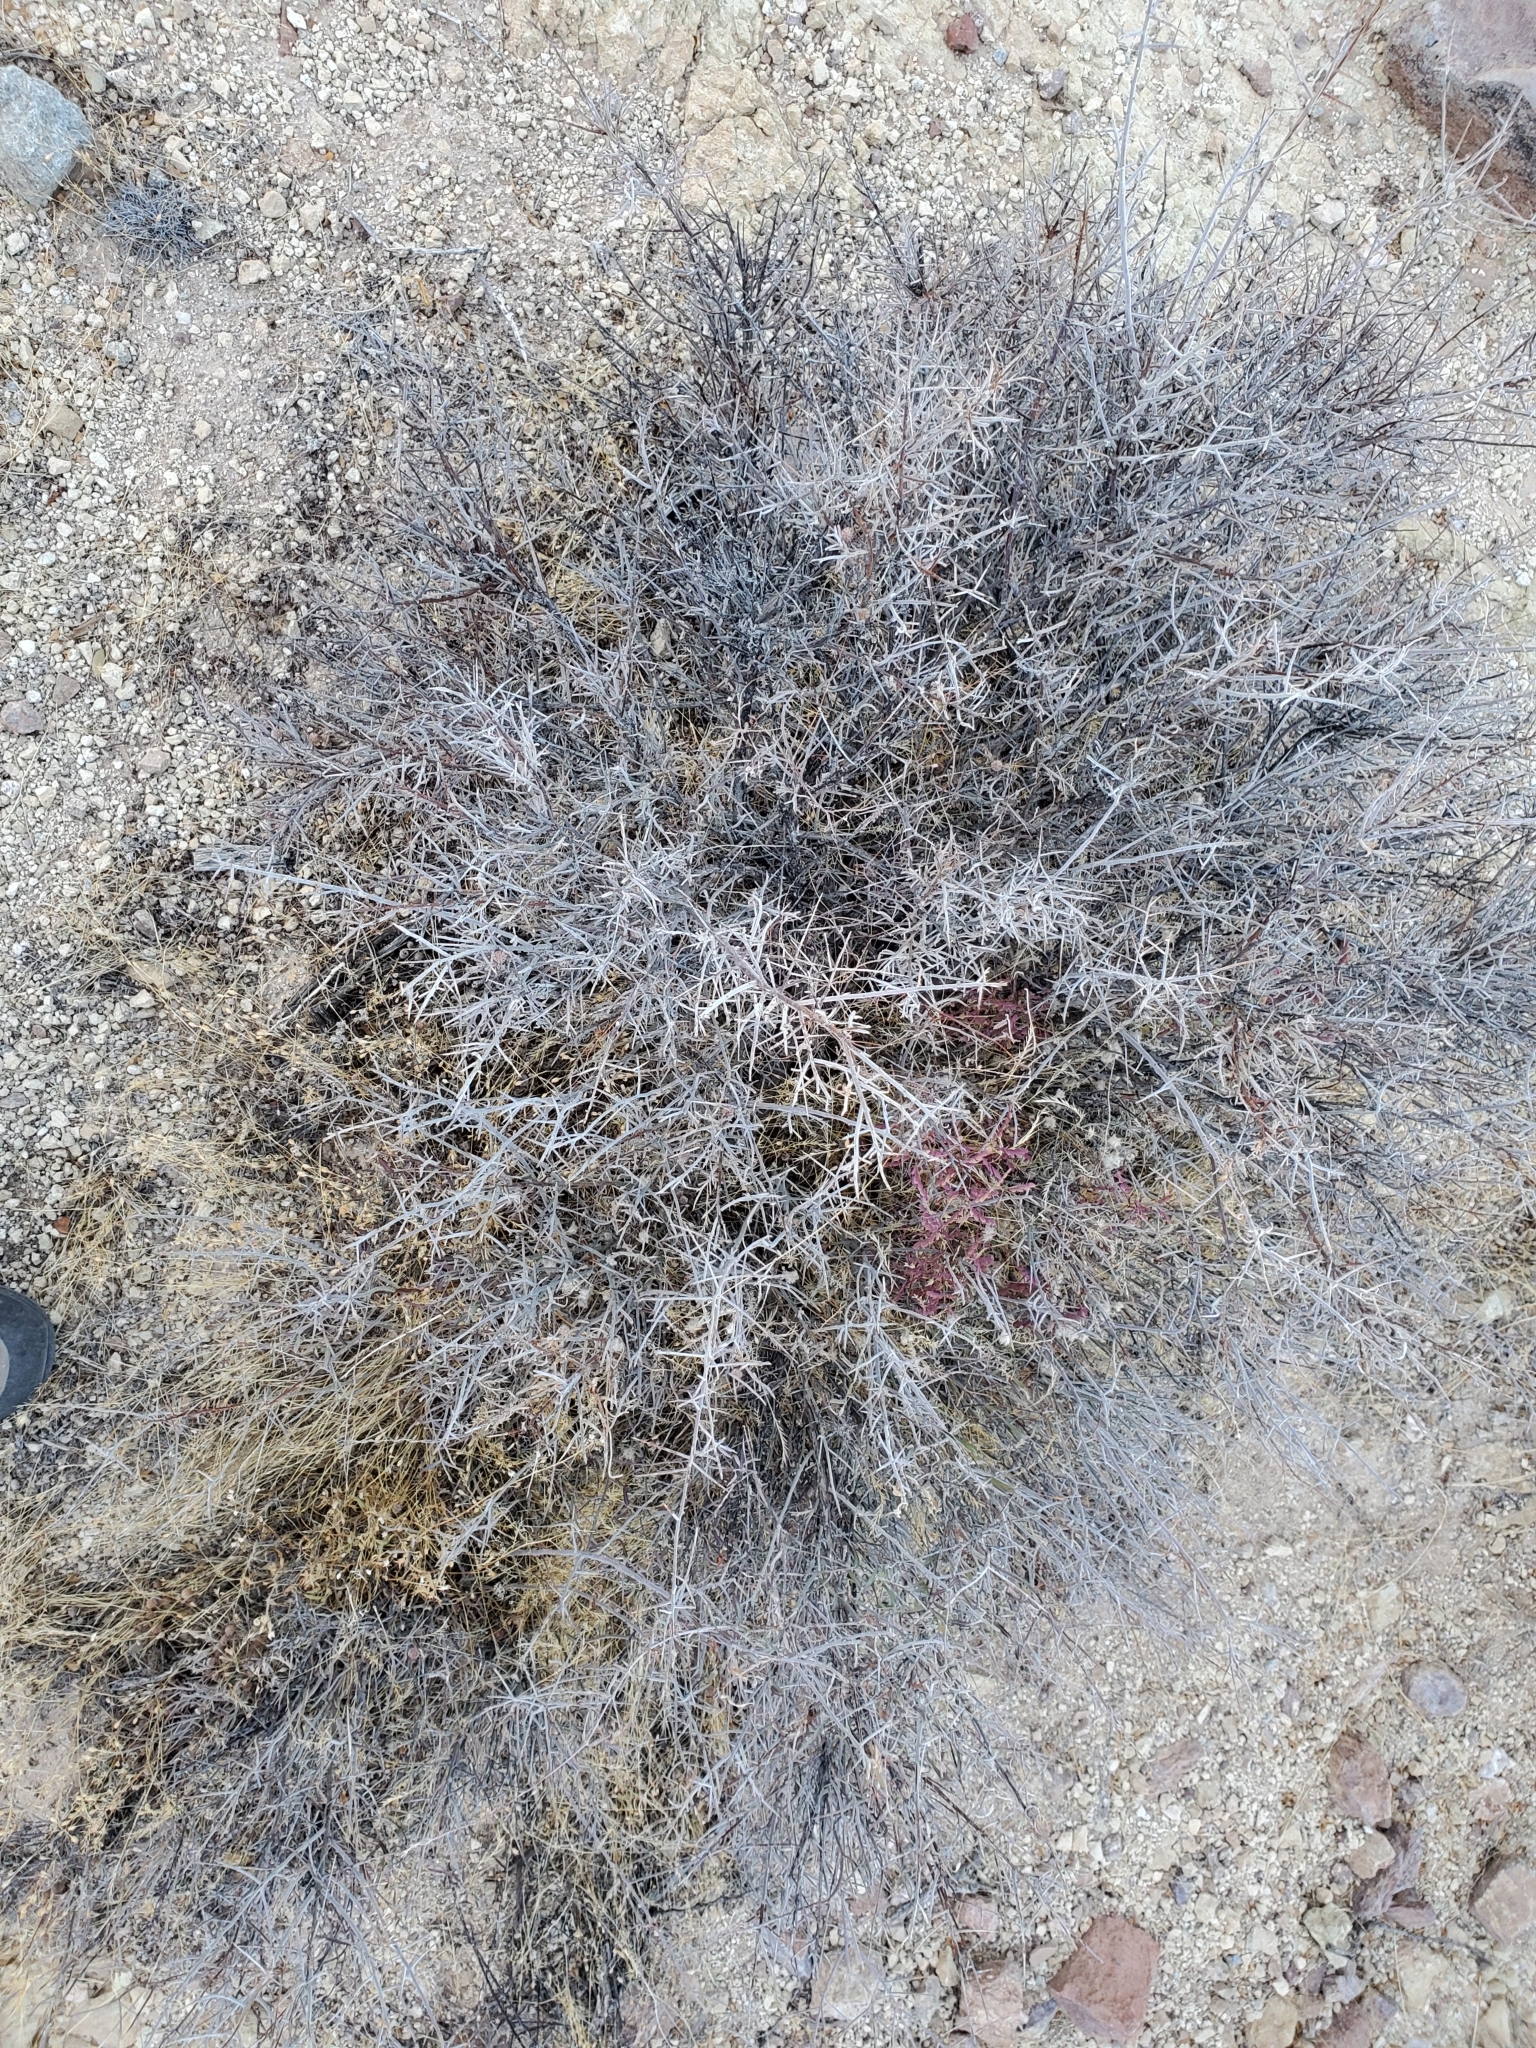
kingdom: Plantae
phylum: Tracheophyta
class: Magnoliopsida
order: Zygophyllales
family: Krameriaceae
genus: Krameria
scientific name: Krameria bicolor
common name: White ratany
